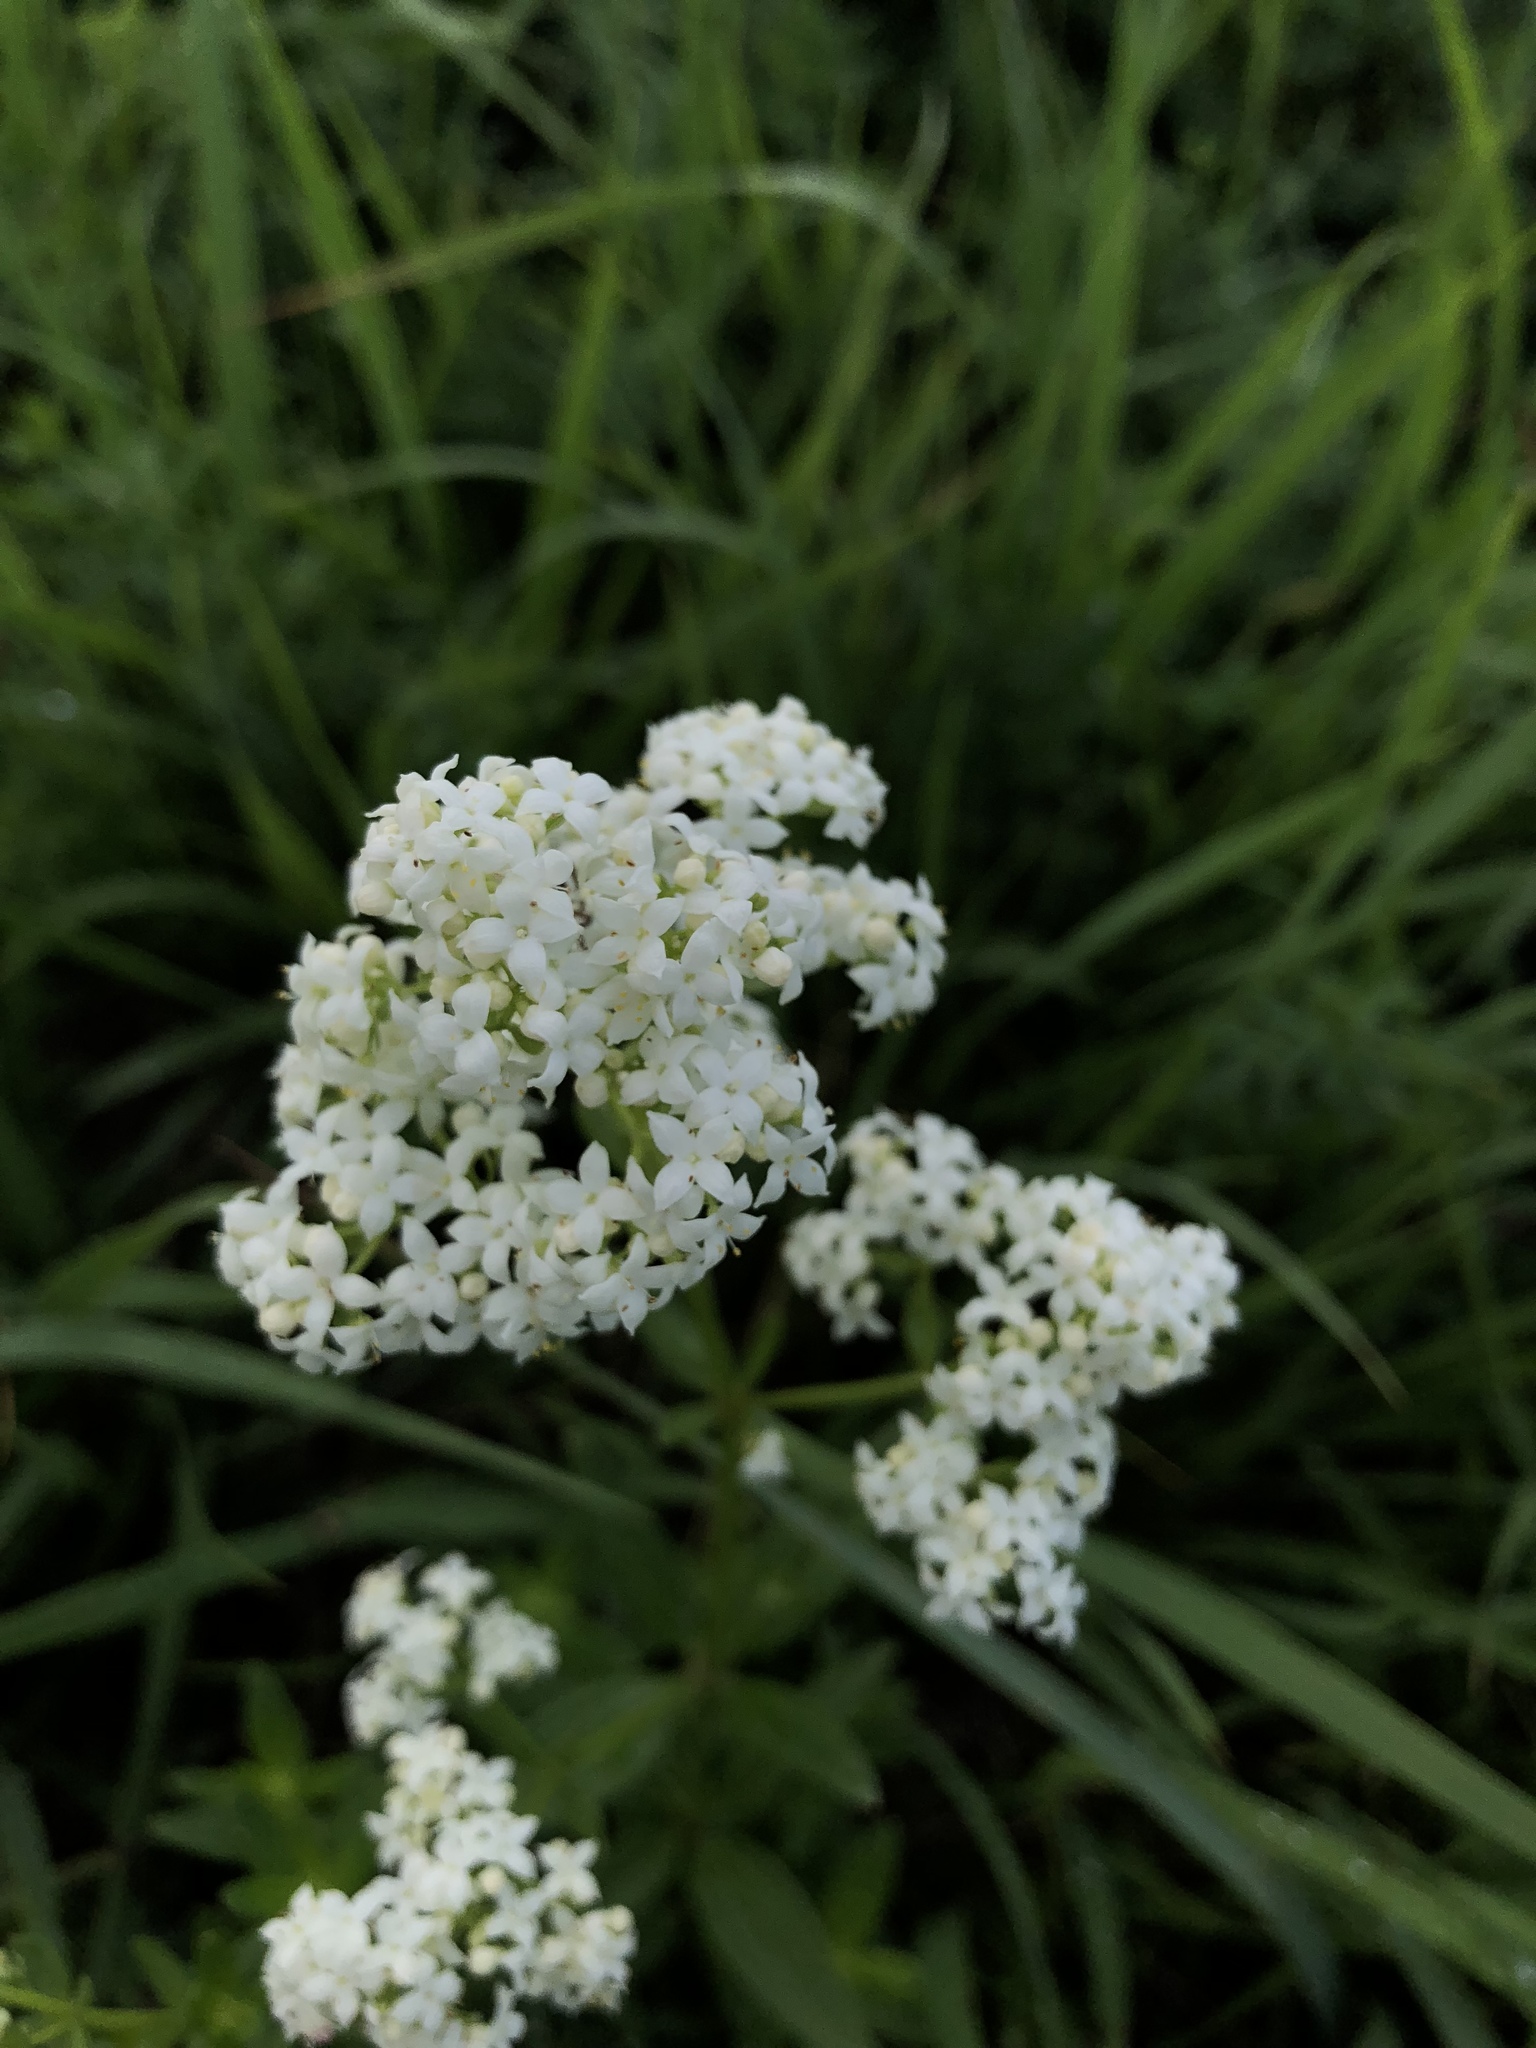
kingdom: Plantae
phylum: Tracheophyta
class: Magnoliopsida
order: Gentianales
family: Rubiaceae
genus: Galium
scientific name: Galium boreale
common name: Northern bedstraw
